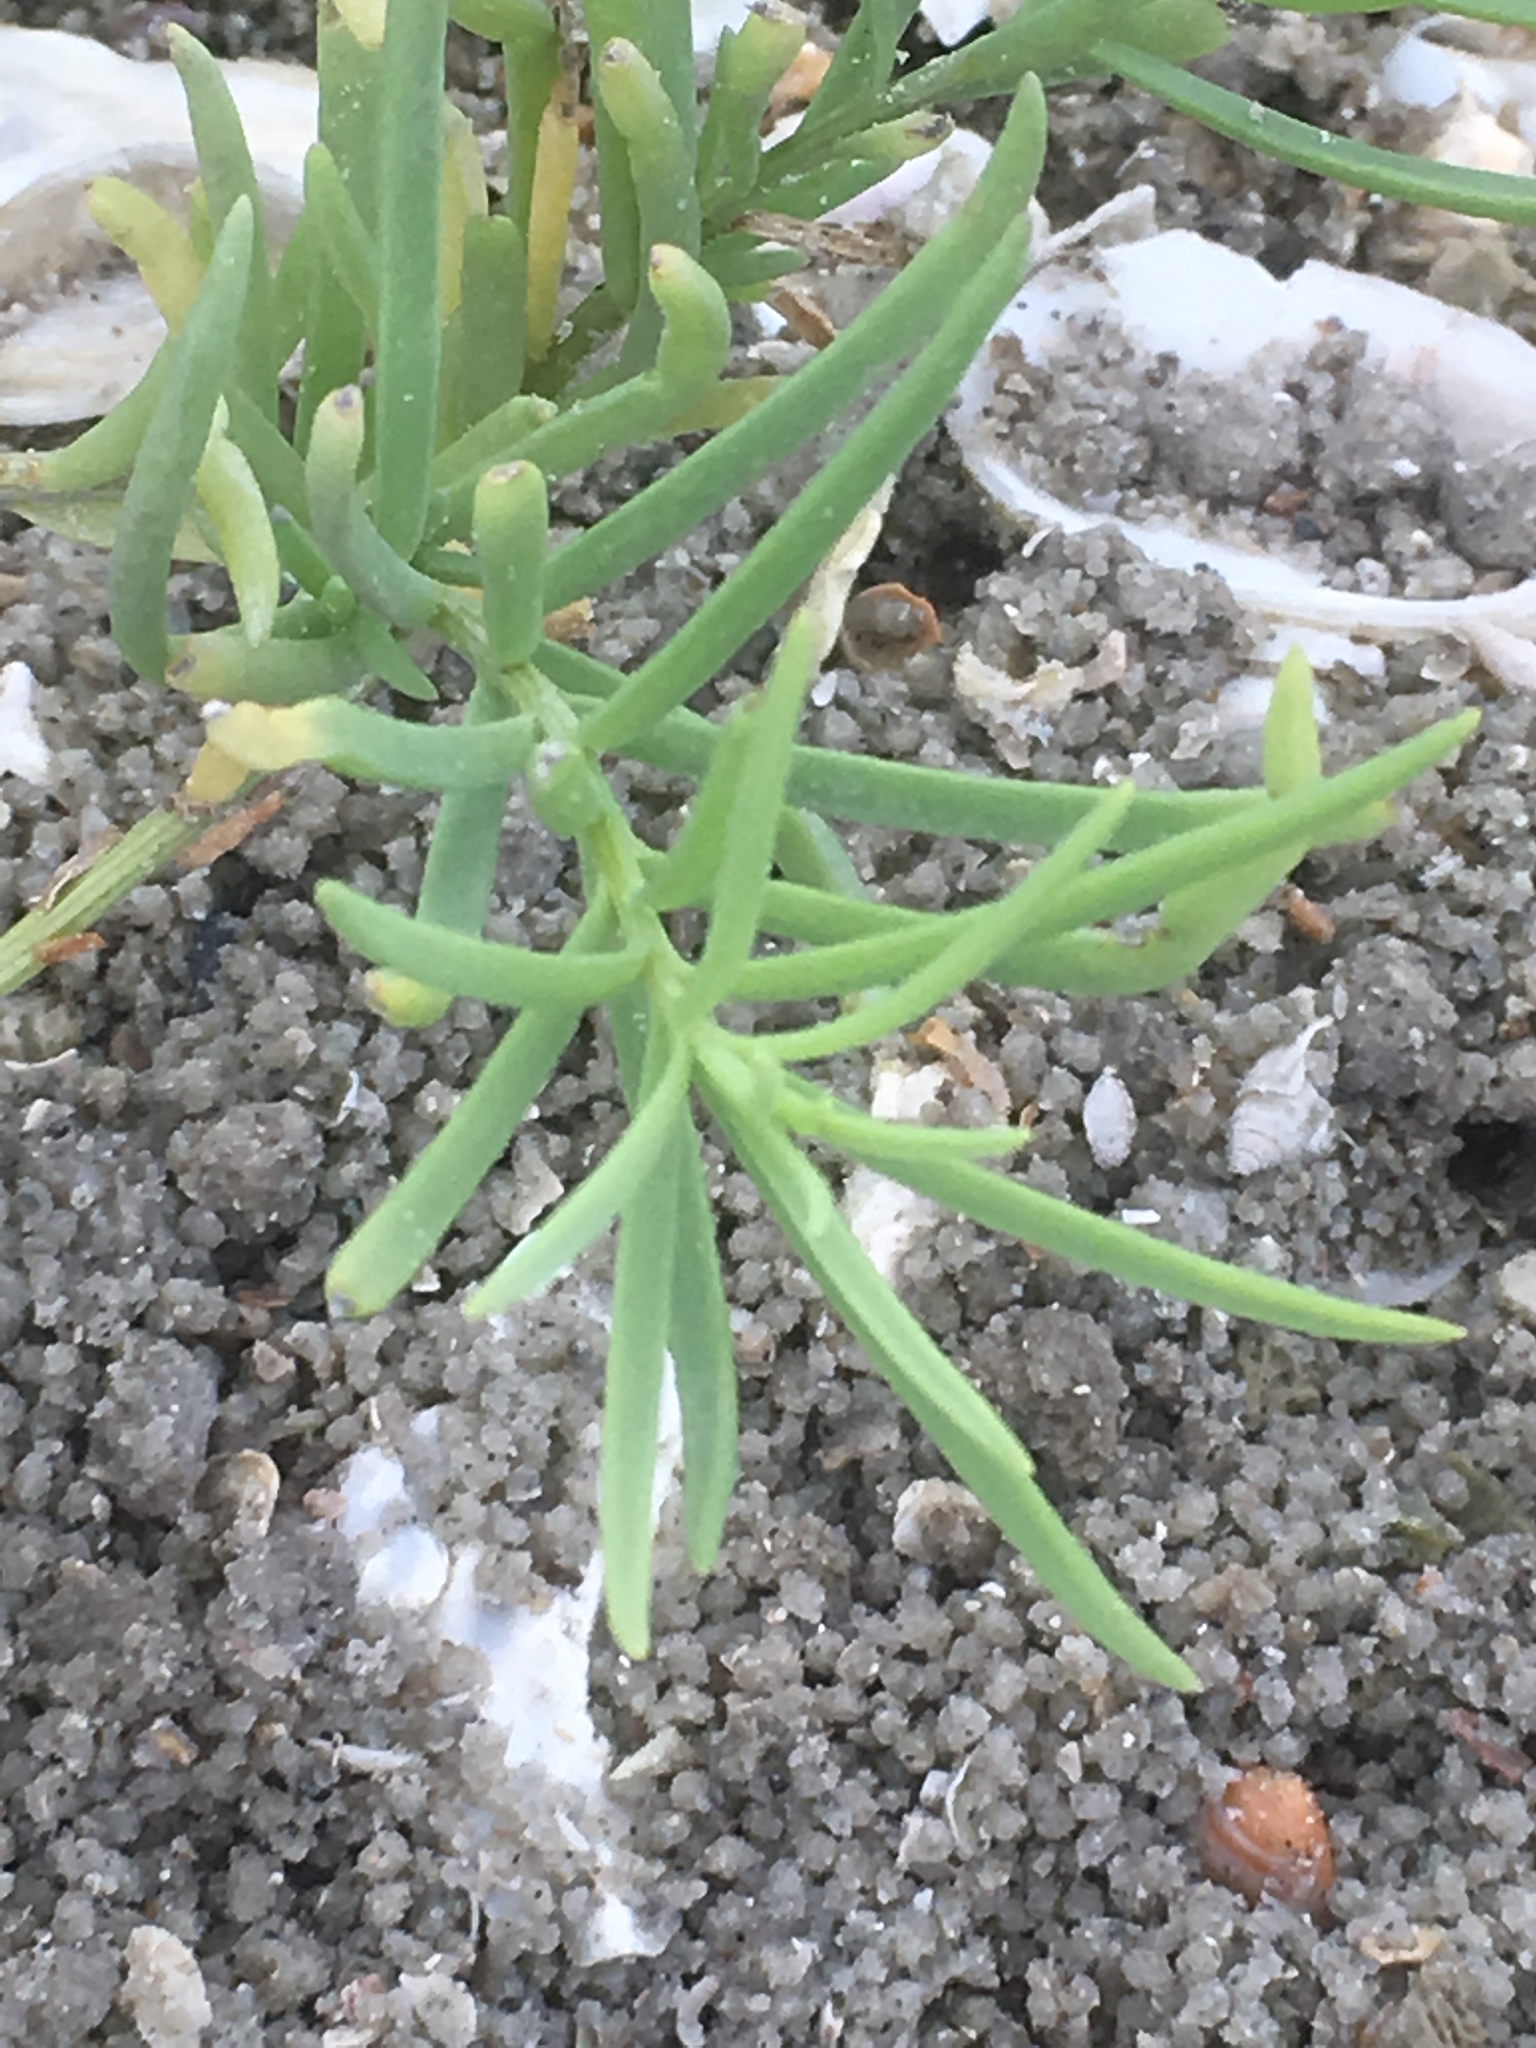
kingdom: Plantae
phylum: Tracheophyta
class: Magnoliopsida
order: Brassicales
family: Bataceae
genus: Batis
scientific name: Batis maritima
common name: Turtleweed
